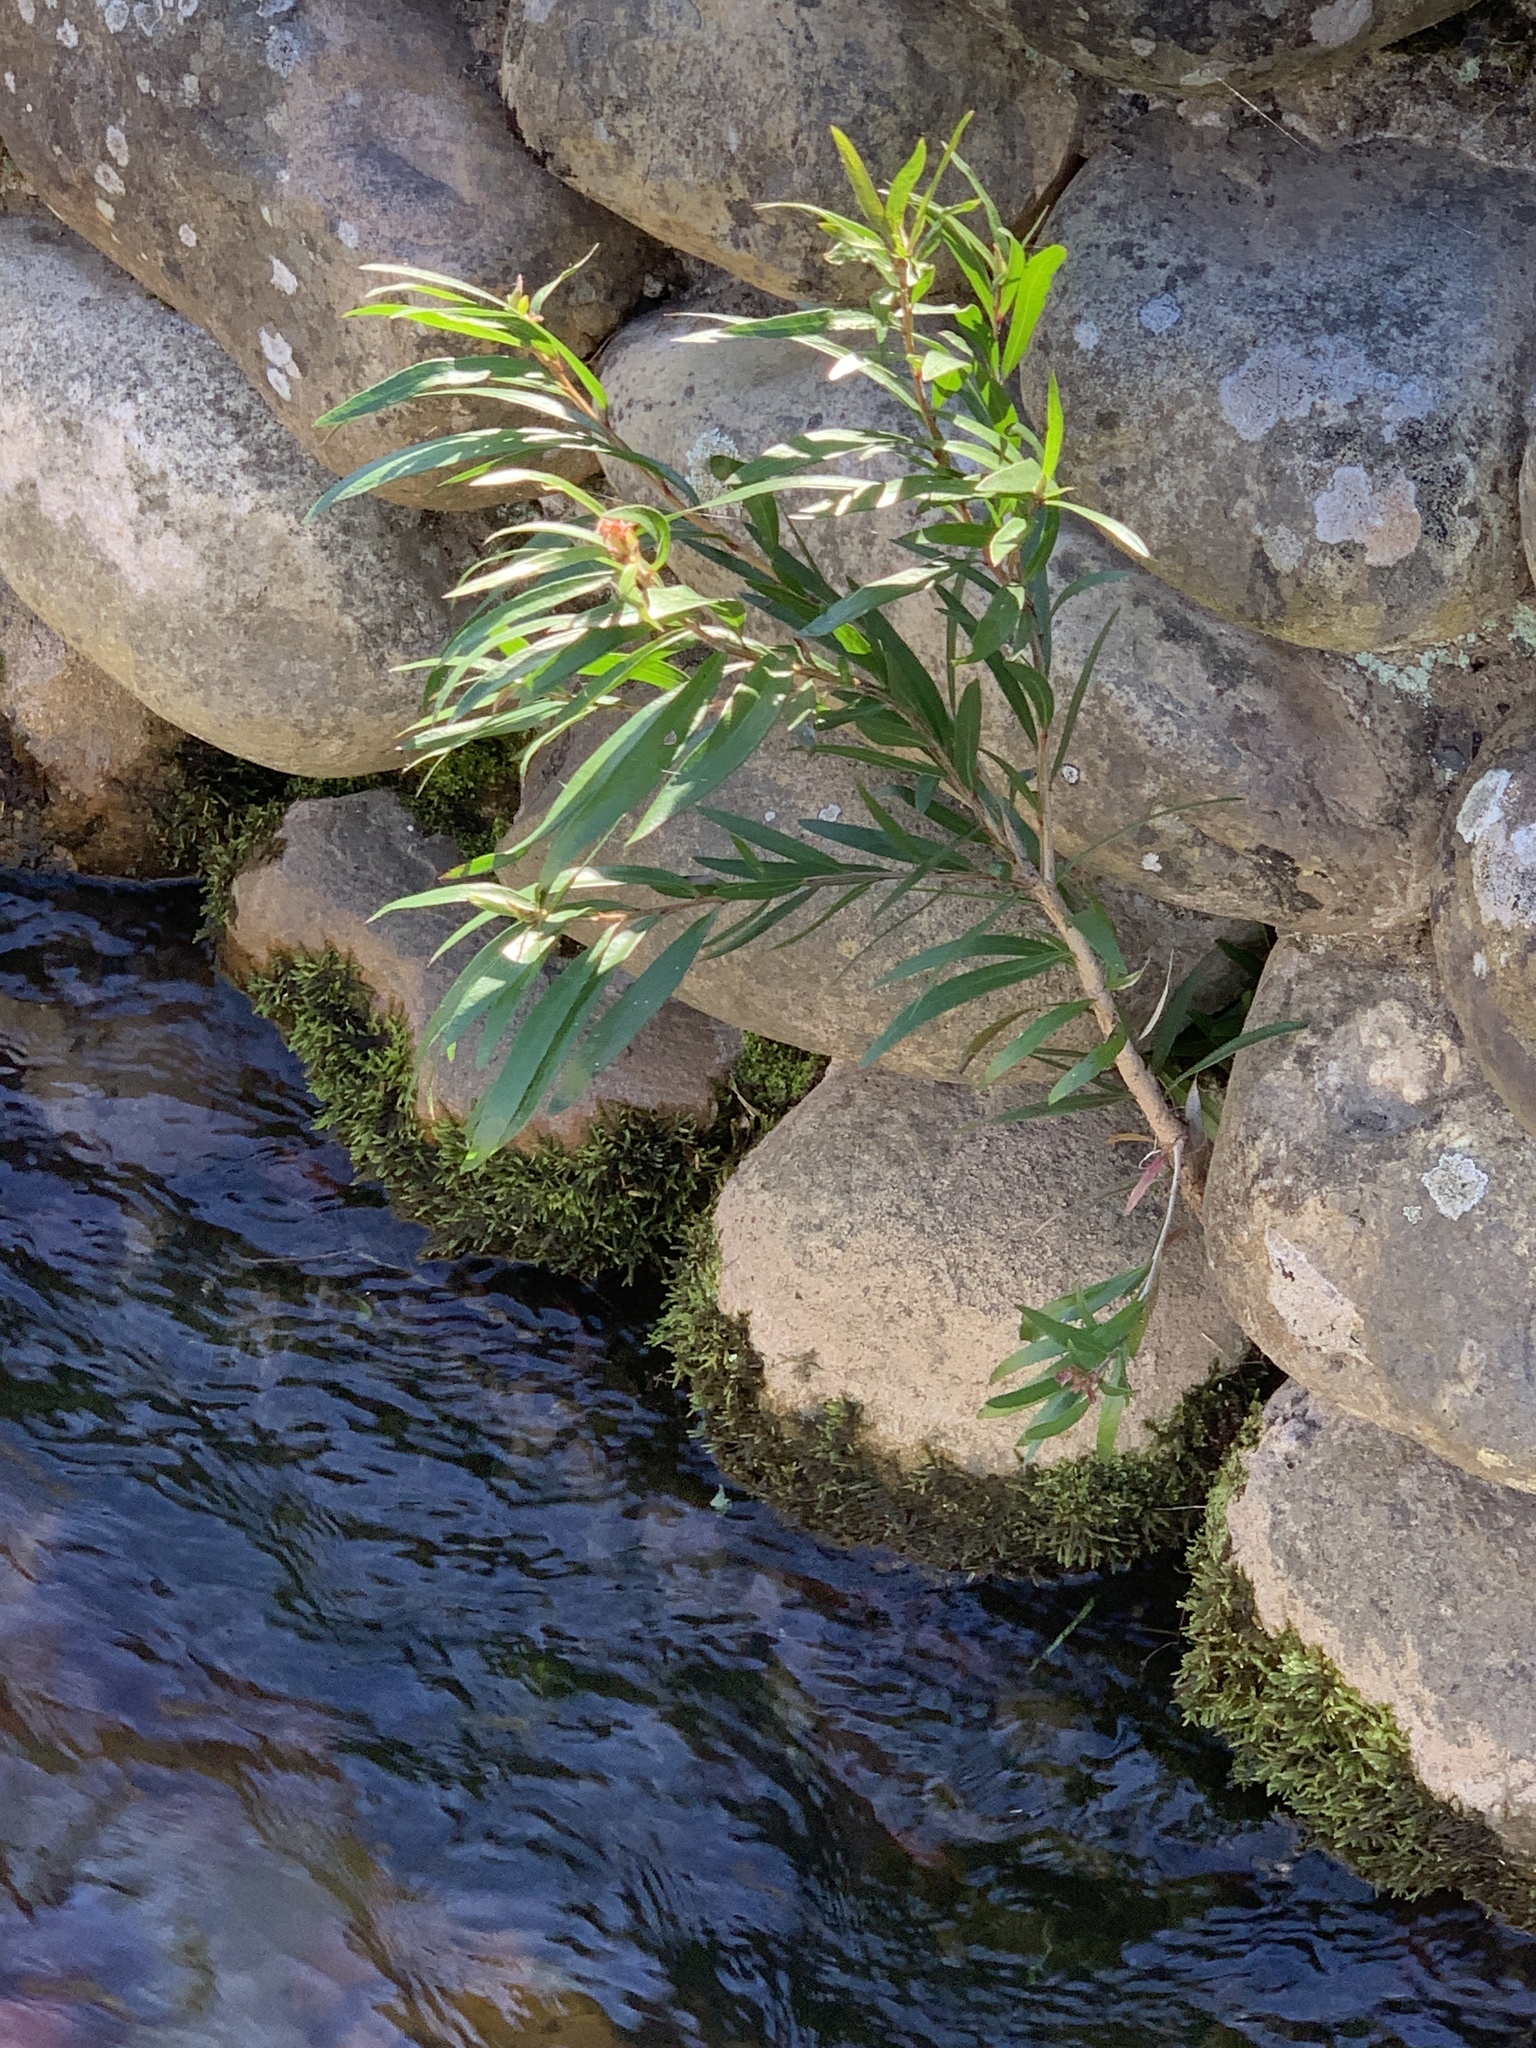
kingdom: Plantae
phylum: Tracheophyta
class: Magnoliopsida
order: Myrtales
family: Myrtaceae
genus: Callistemon
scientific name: Callistemon viminalis
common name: Drooping bottlebrush
